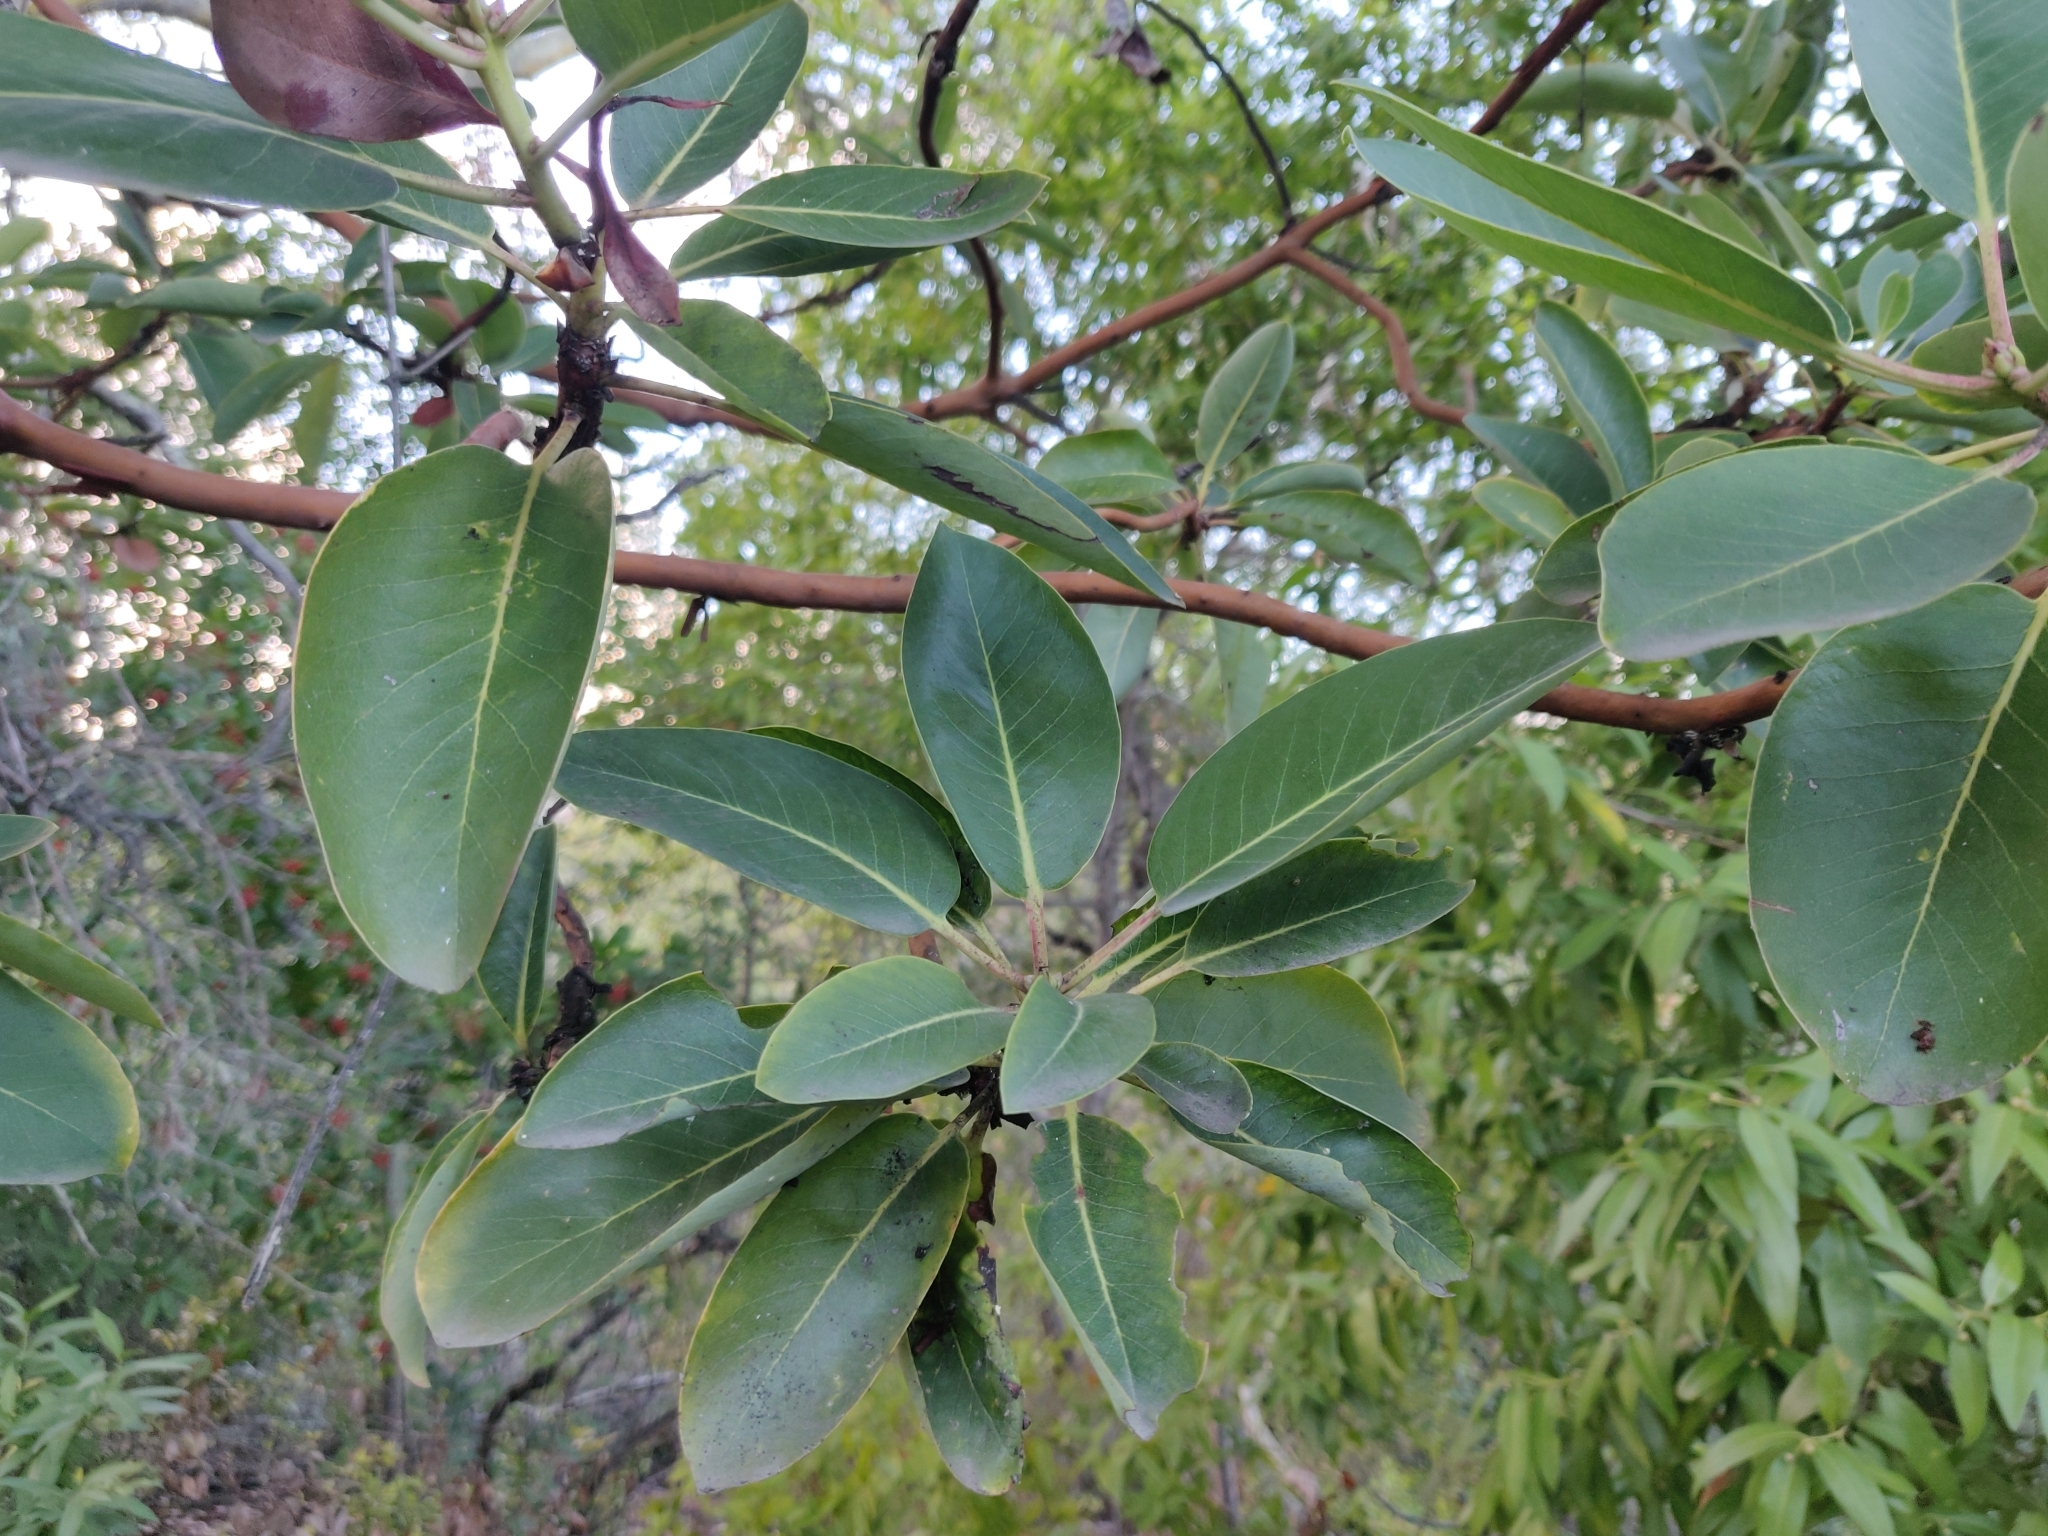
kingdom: Plantae
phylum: Tracheophyta
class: Magnoliopsida
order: Ericales
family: Ericaceae
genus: Arbutus
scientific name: Arbutus menziesii
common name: Pacific madrone
